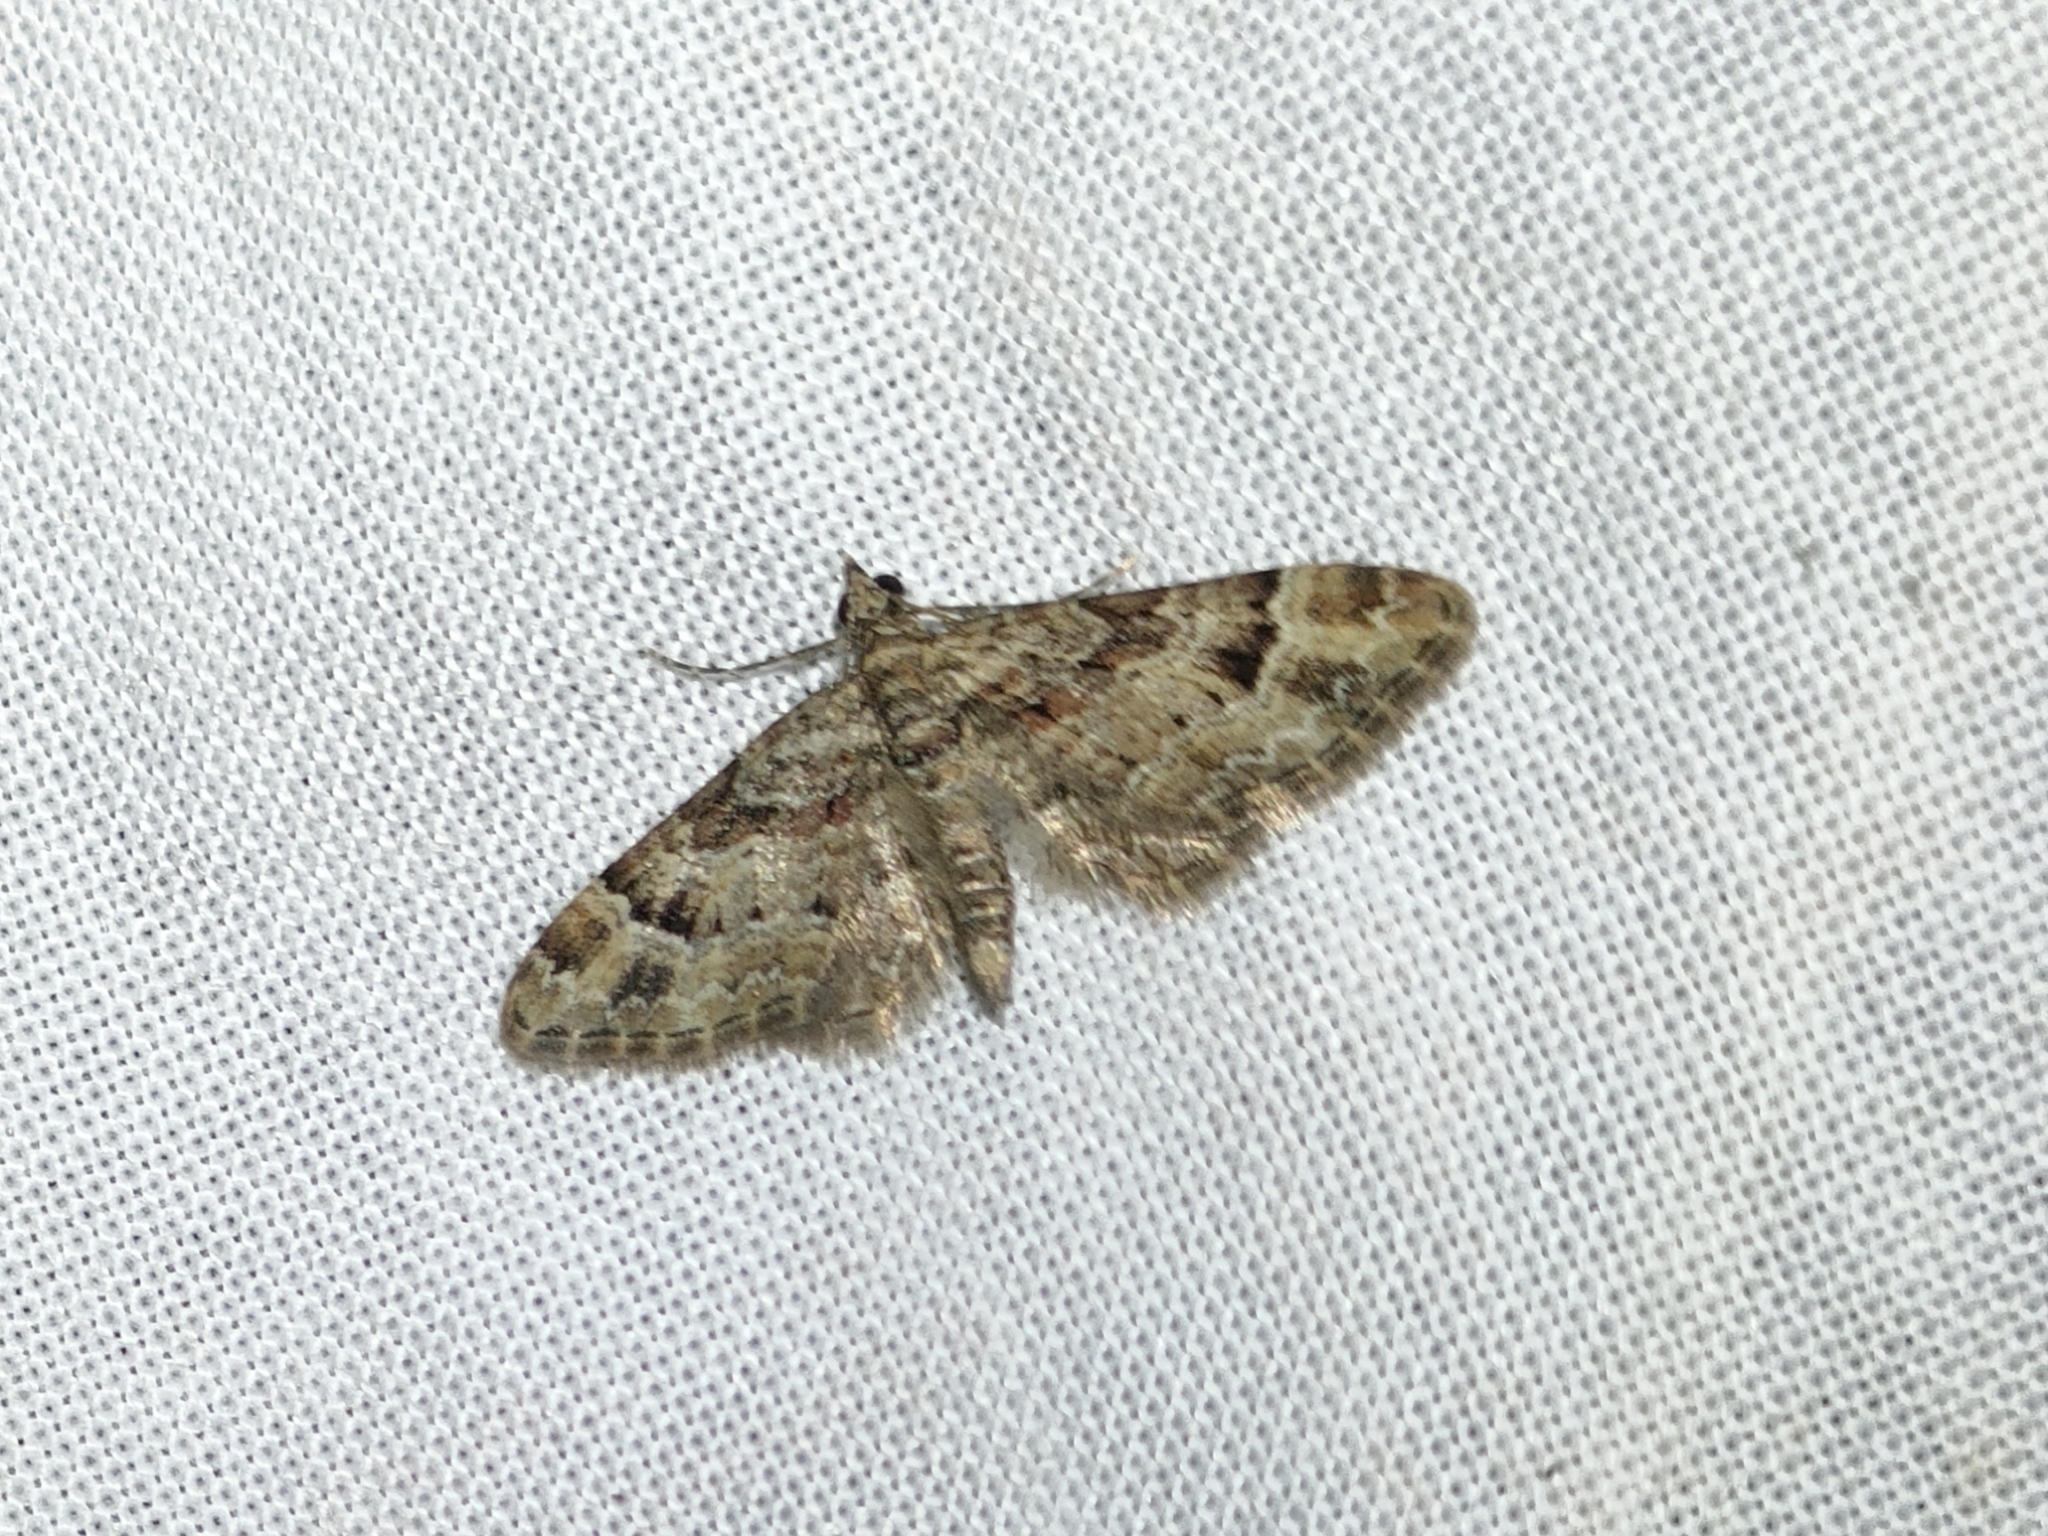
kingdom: Animalia
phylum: Arthropoda
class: Insecta
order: Lepidoptera
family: Geometridae
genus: Gymnoscelis
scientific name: Gymnoscelis rufifasciata
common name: Double-striped pug
